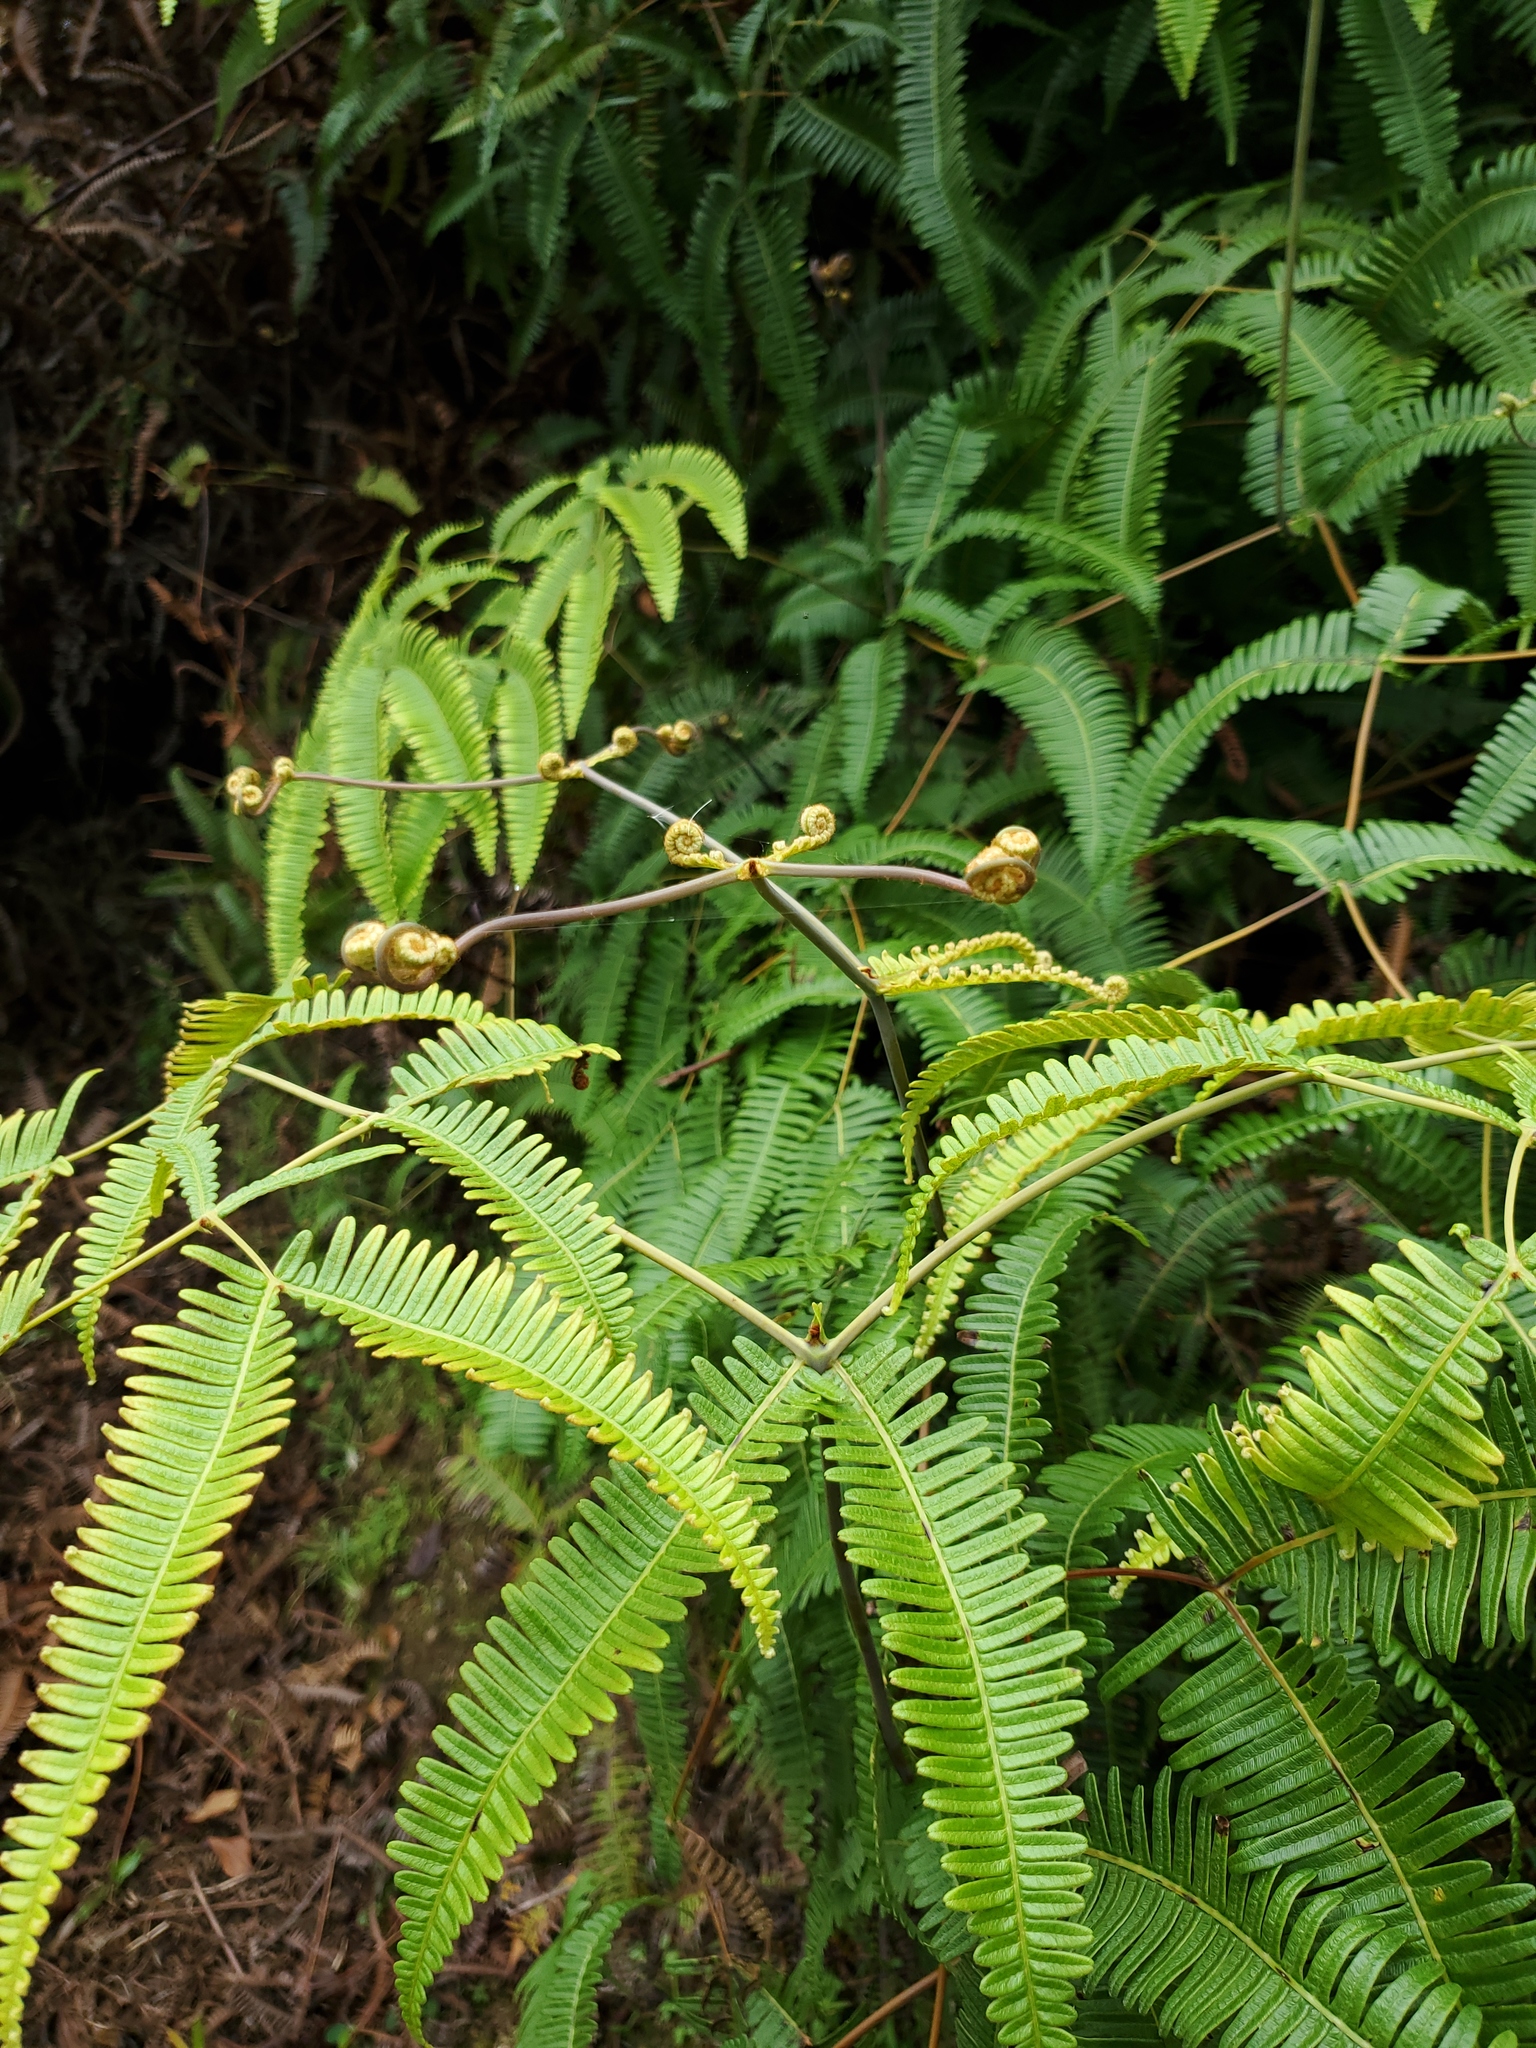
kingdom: Plantae
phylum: Tracheophyta
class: Polypodiopsida
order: Gleicheniales
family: Gleicheniaceae
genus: Dicranopteris
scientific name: Dicranopteris linearis
